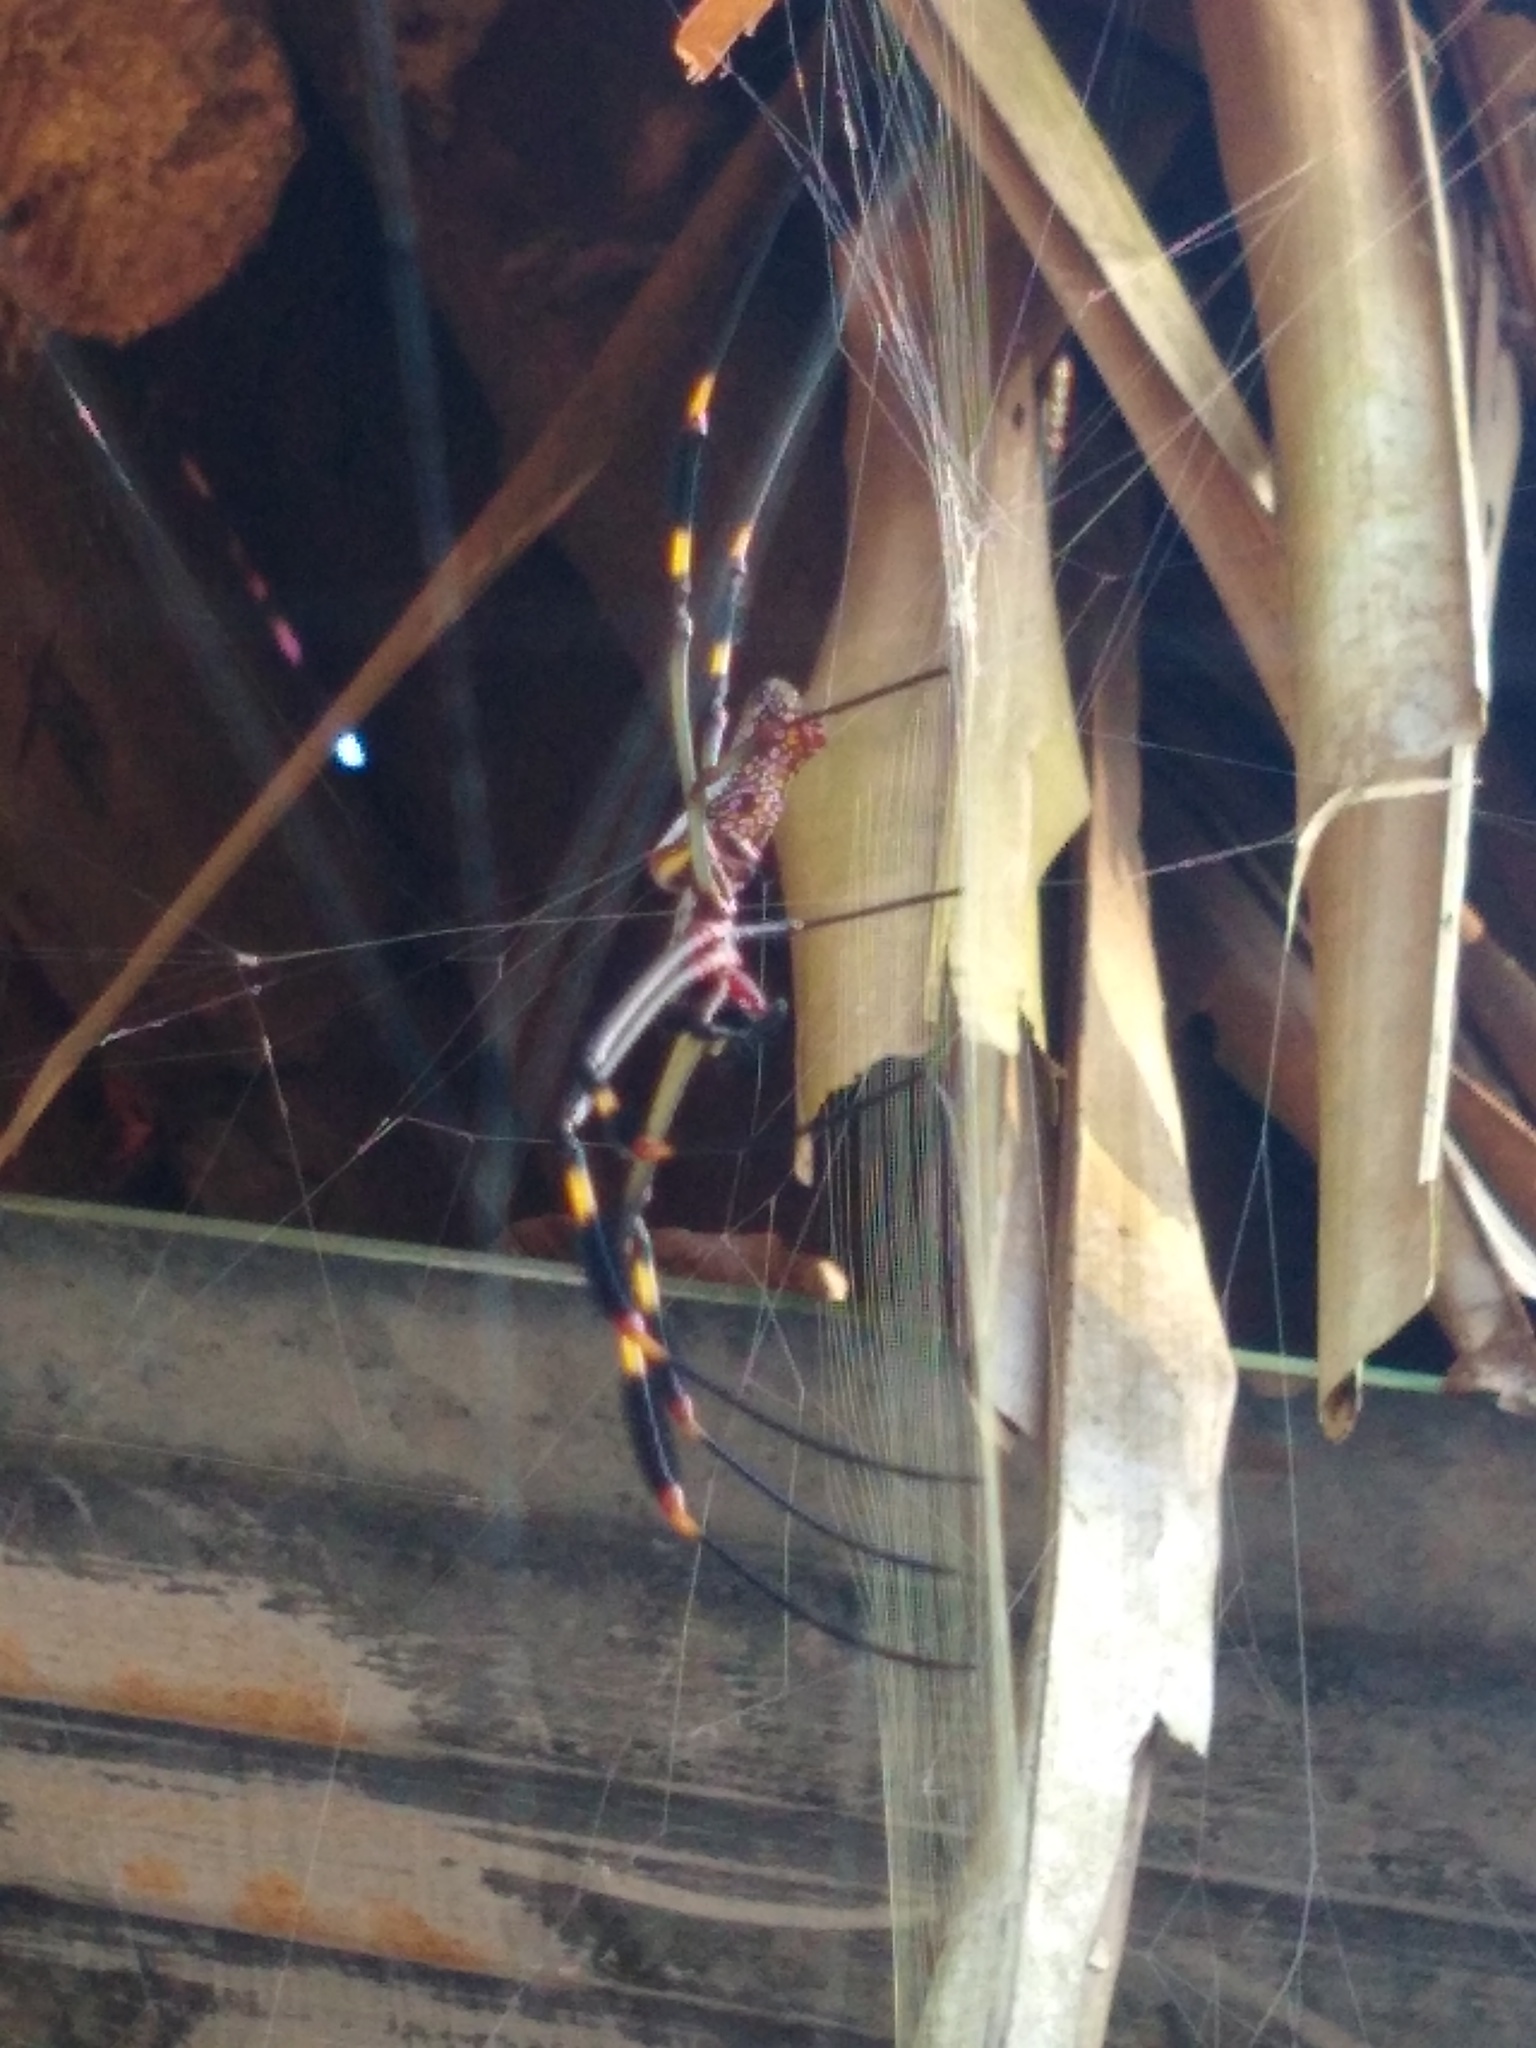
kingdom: Animalia
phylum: Arthropoda
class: Arachnida
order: Araneae
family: Araneidae
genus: Trichonephila
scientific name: Trichonephila clavipes
